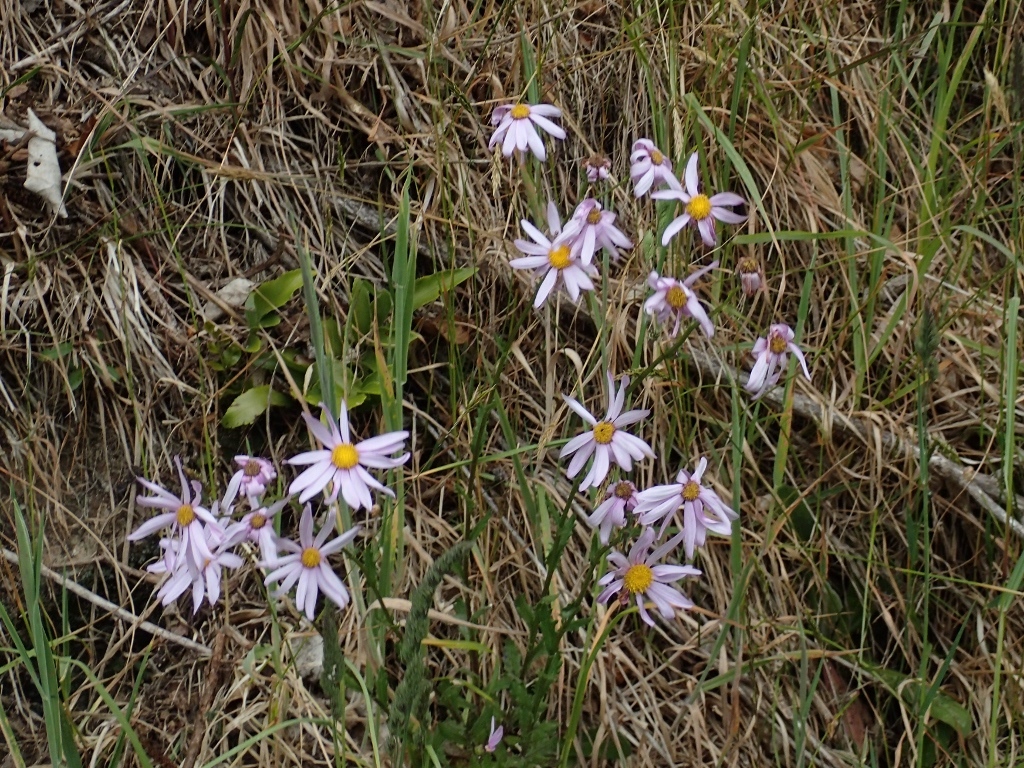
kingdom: Plantae
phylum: Tracheophyta
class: Magnoliopsida
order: Asterales
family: Asteraceae
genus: Senecio
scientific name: Senecio glastifolius
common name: Woad-leaved ragwort
